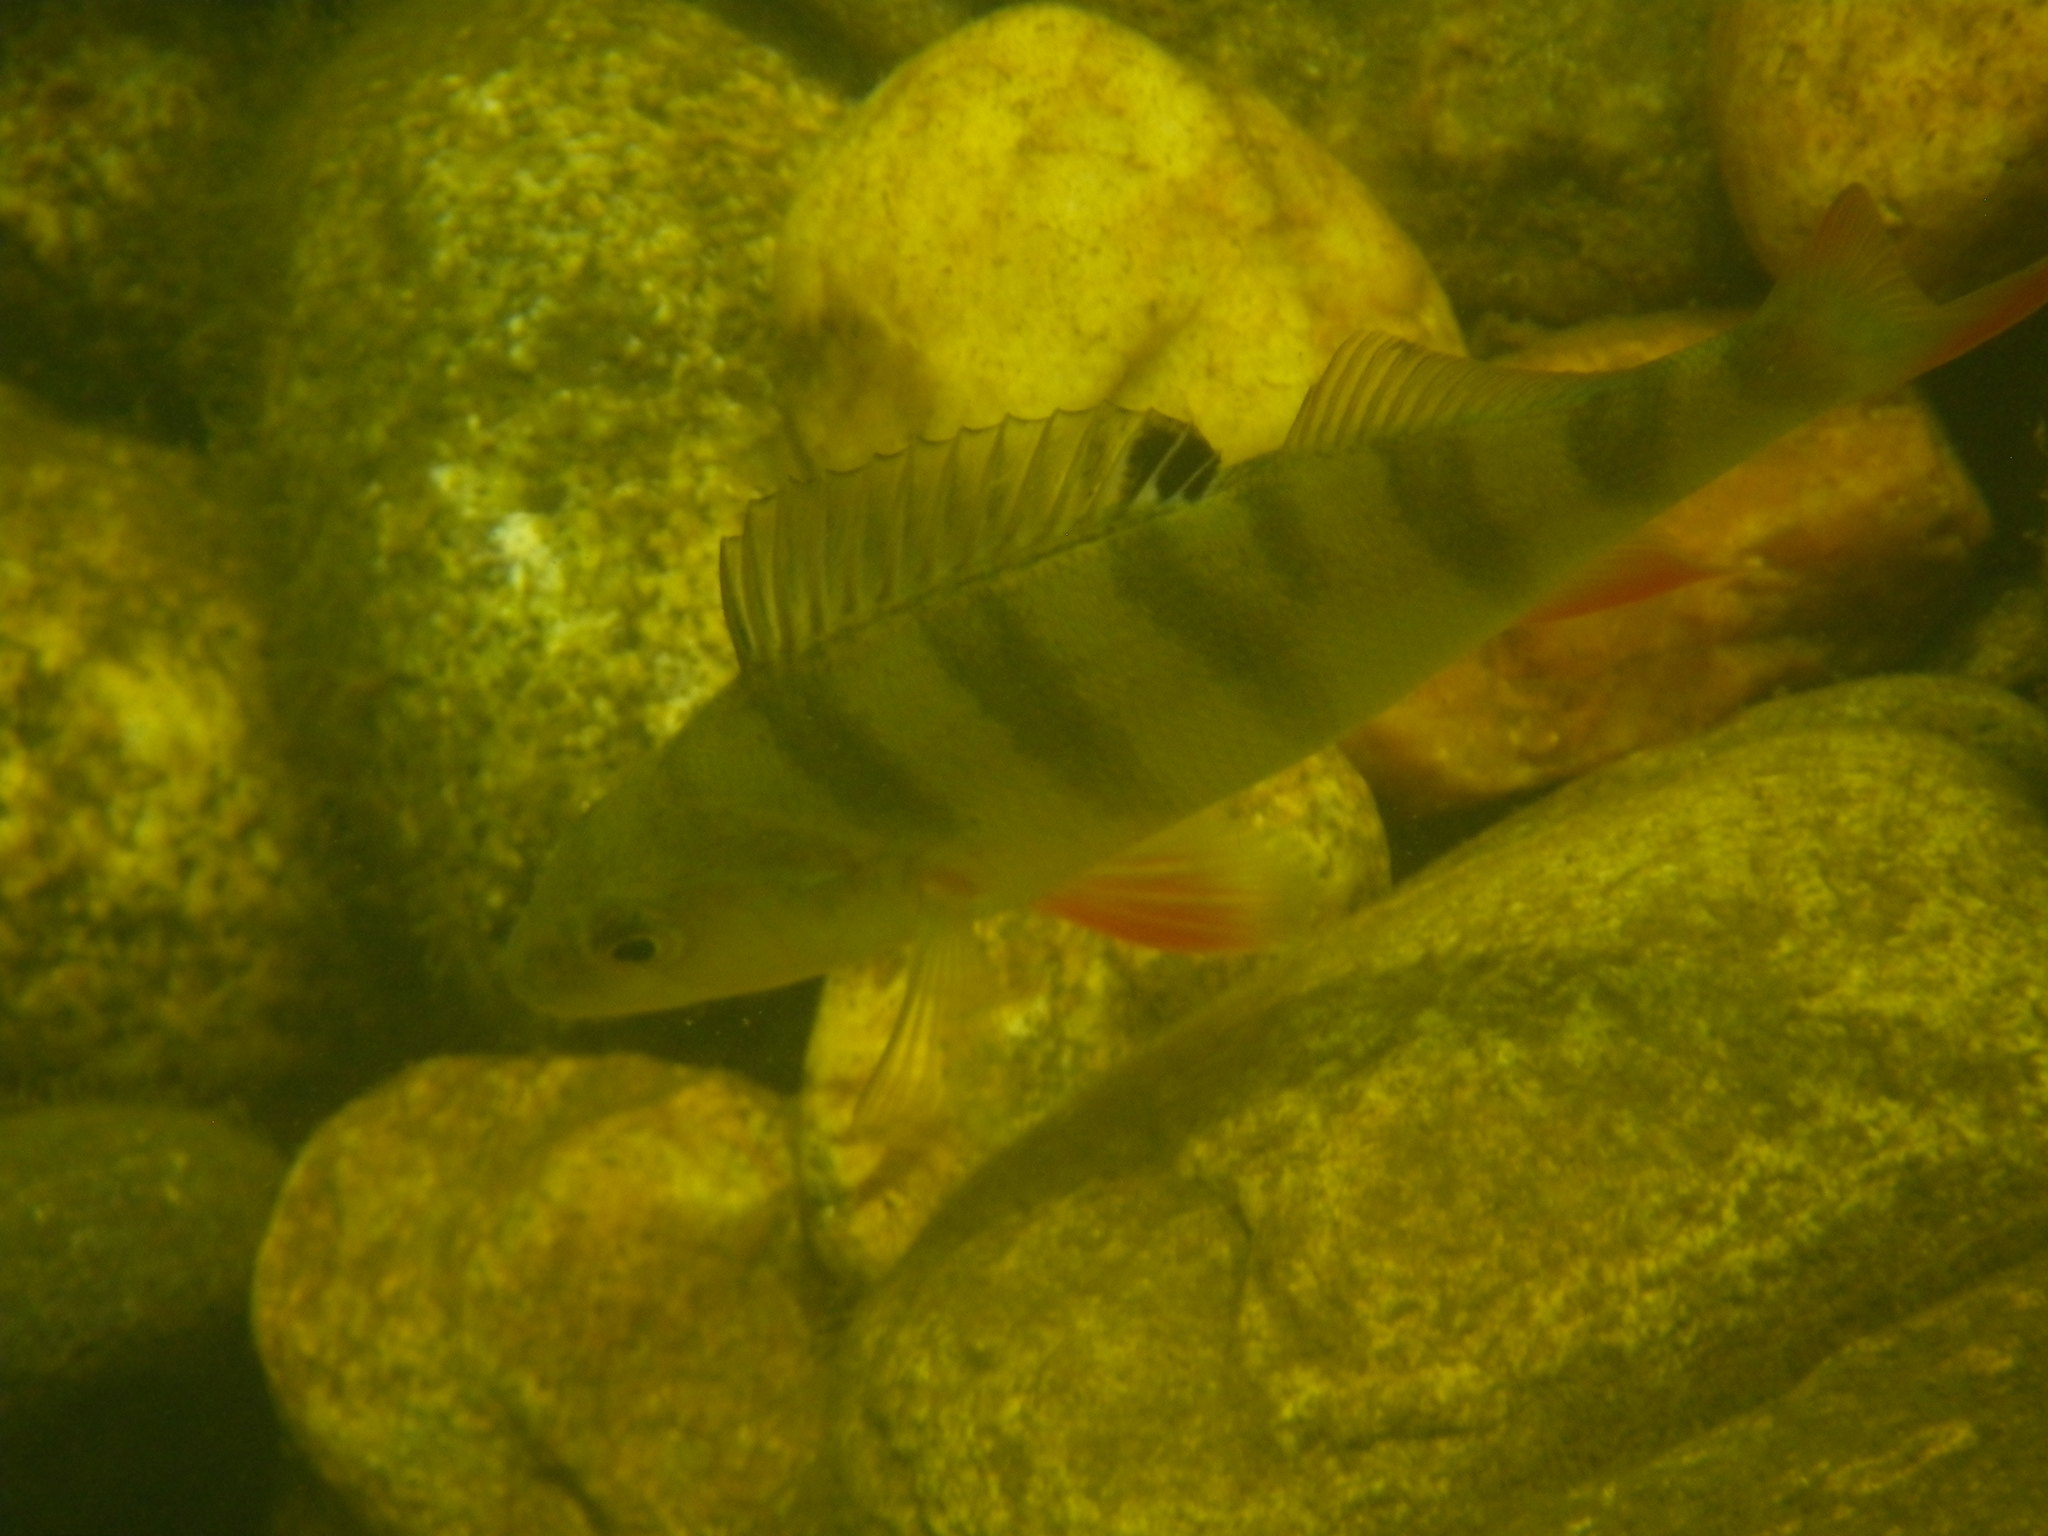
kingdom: Animalia
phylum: Chordata
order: Perciformes
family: Percidae
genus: Perca
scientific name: Perca fluviatilis
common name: Perch
